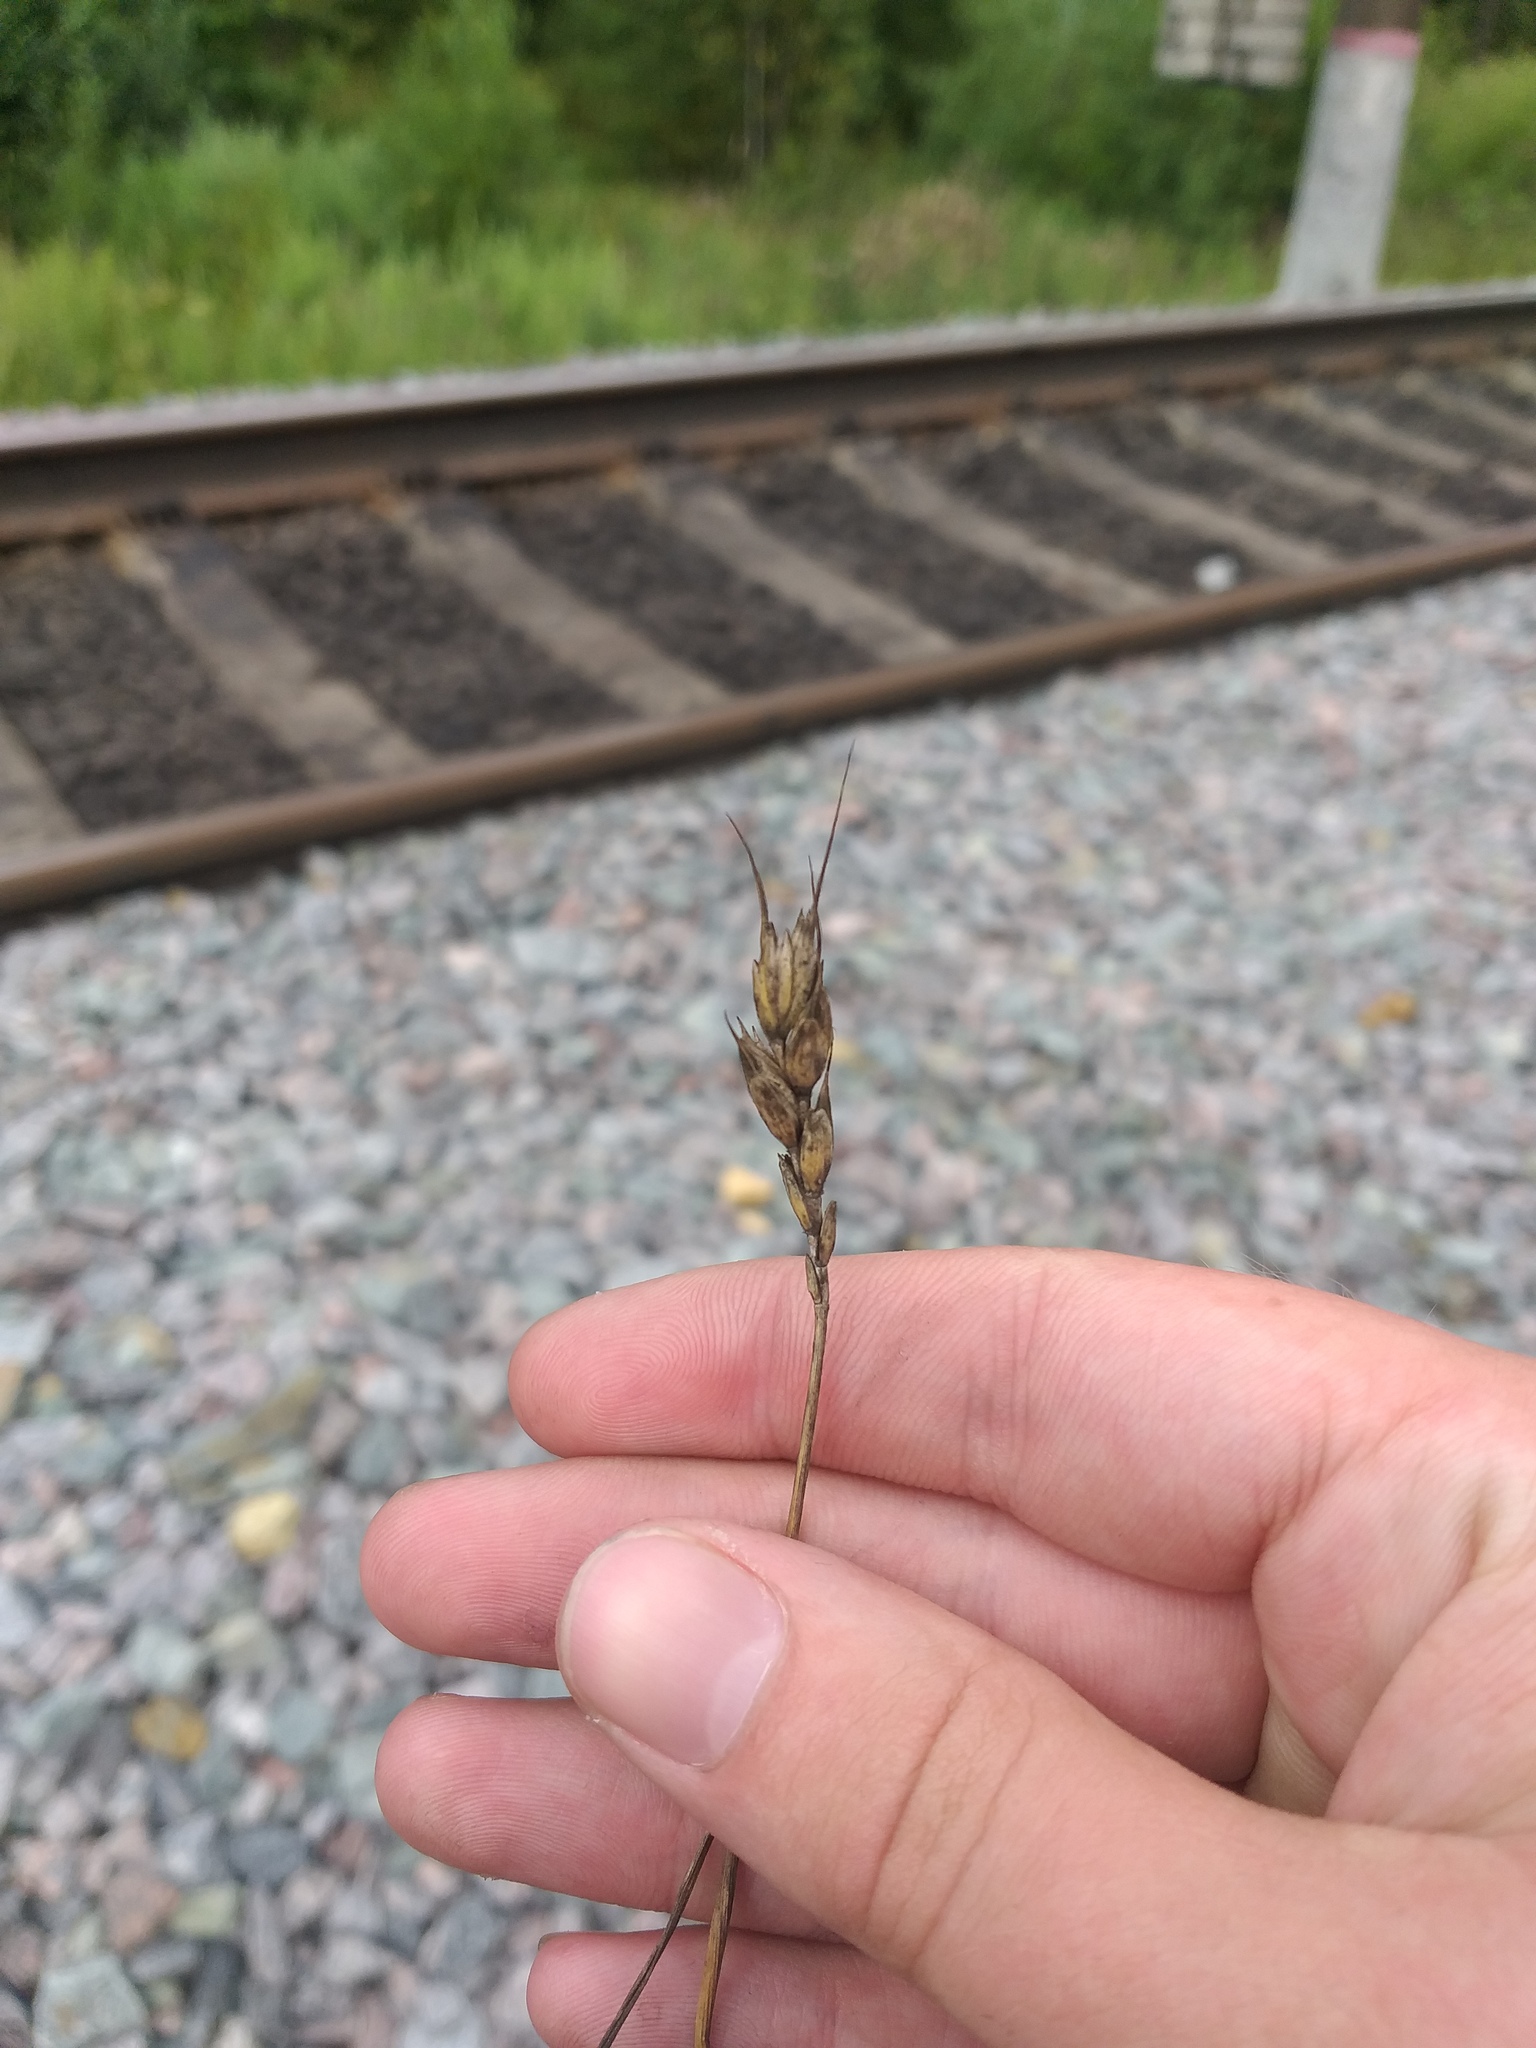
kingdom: Plantae
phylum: Tracheophyta
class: Liliopsida
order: Poales
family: Poaceae
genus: Triticum
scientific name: Triticum aestivum
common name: Common wheat
